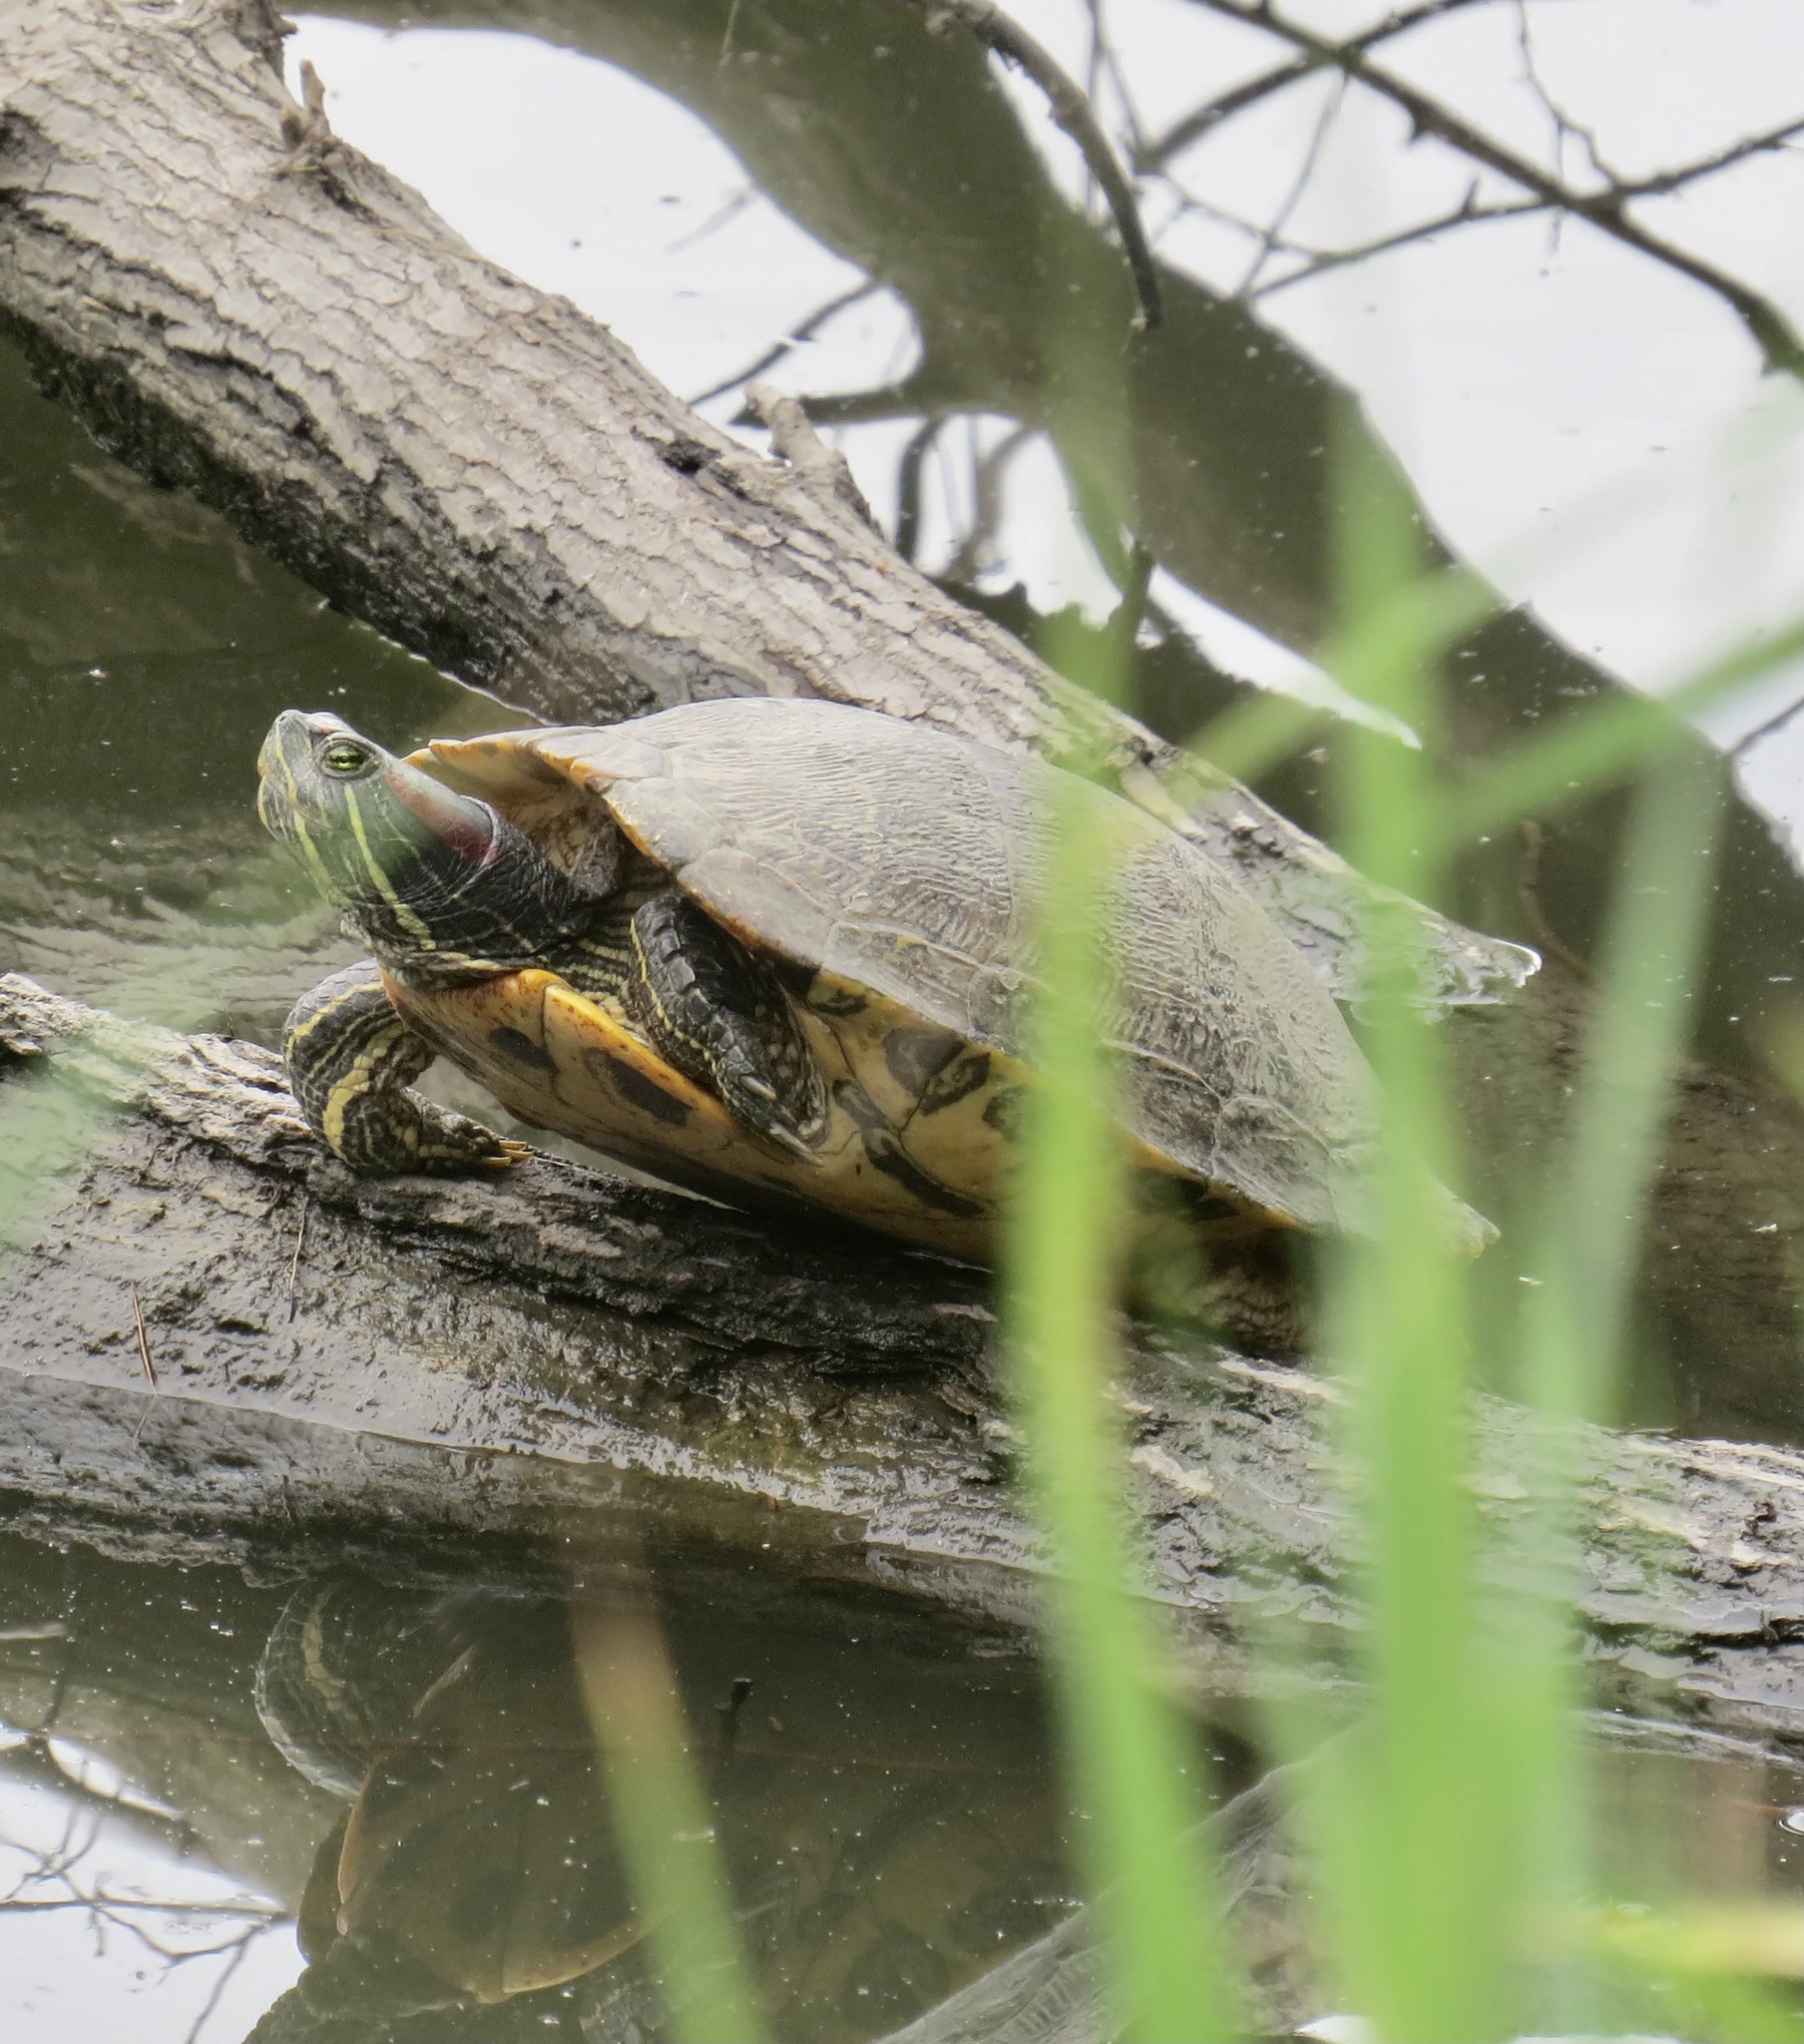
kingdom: Animalia
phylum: Chordata
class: Testudines
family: Emydidae
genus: Trachemys
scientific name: Trachemys scripta
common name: Slider
